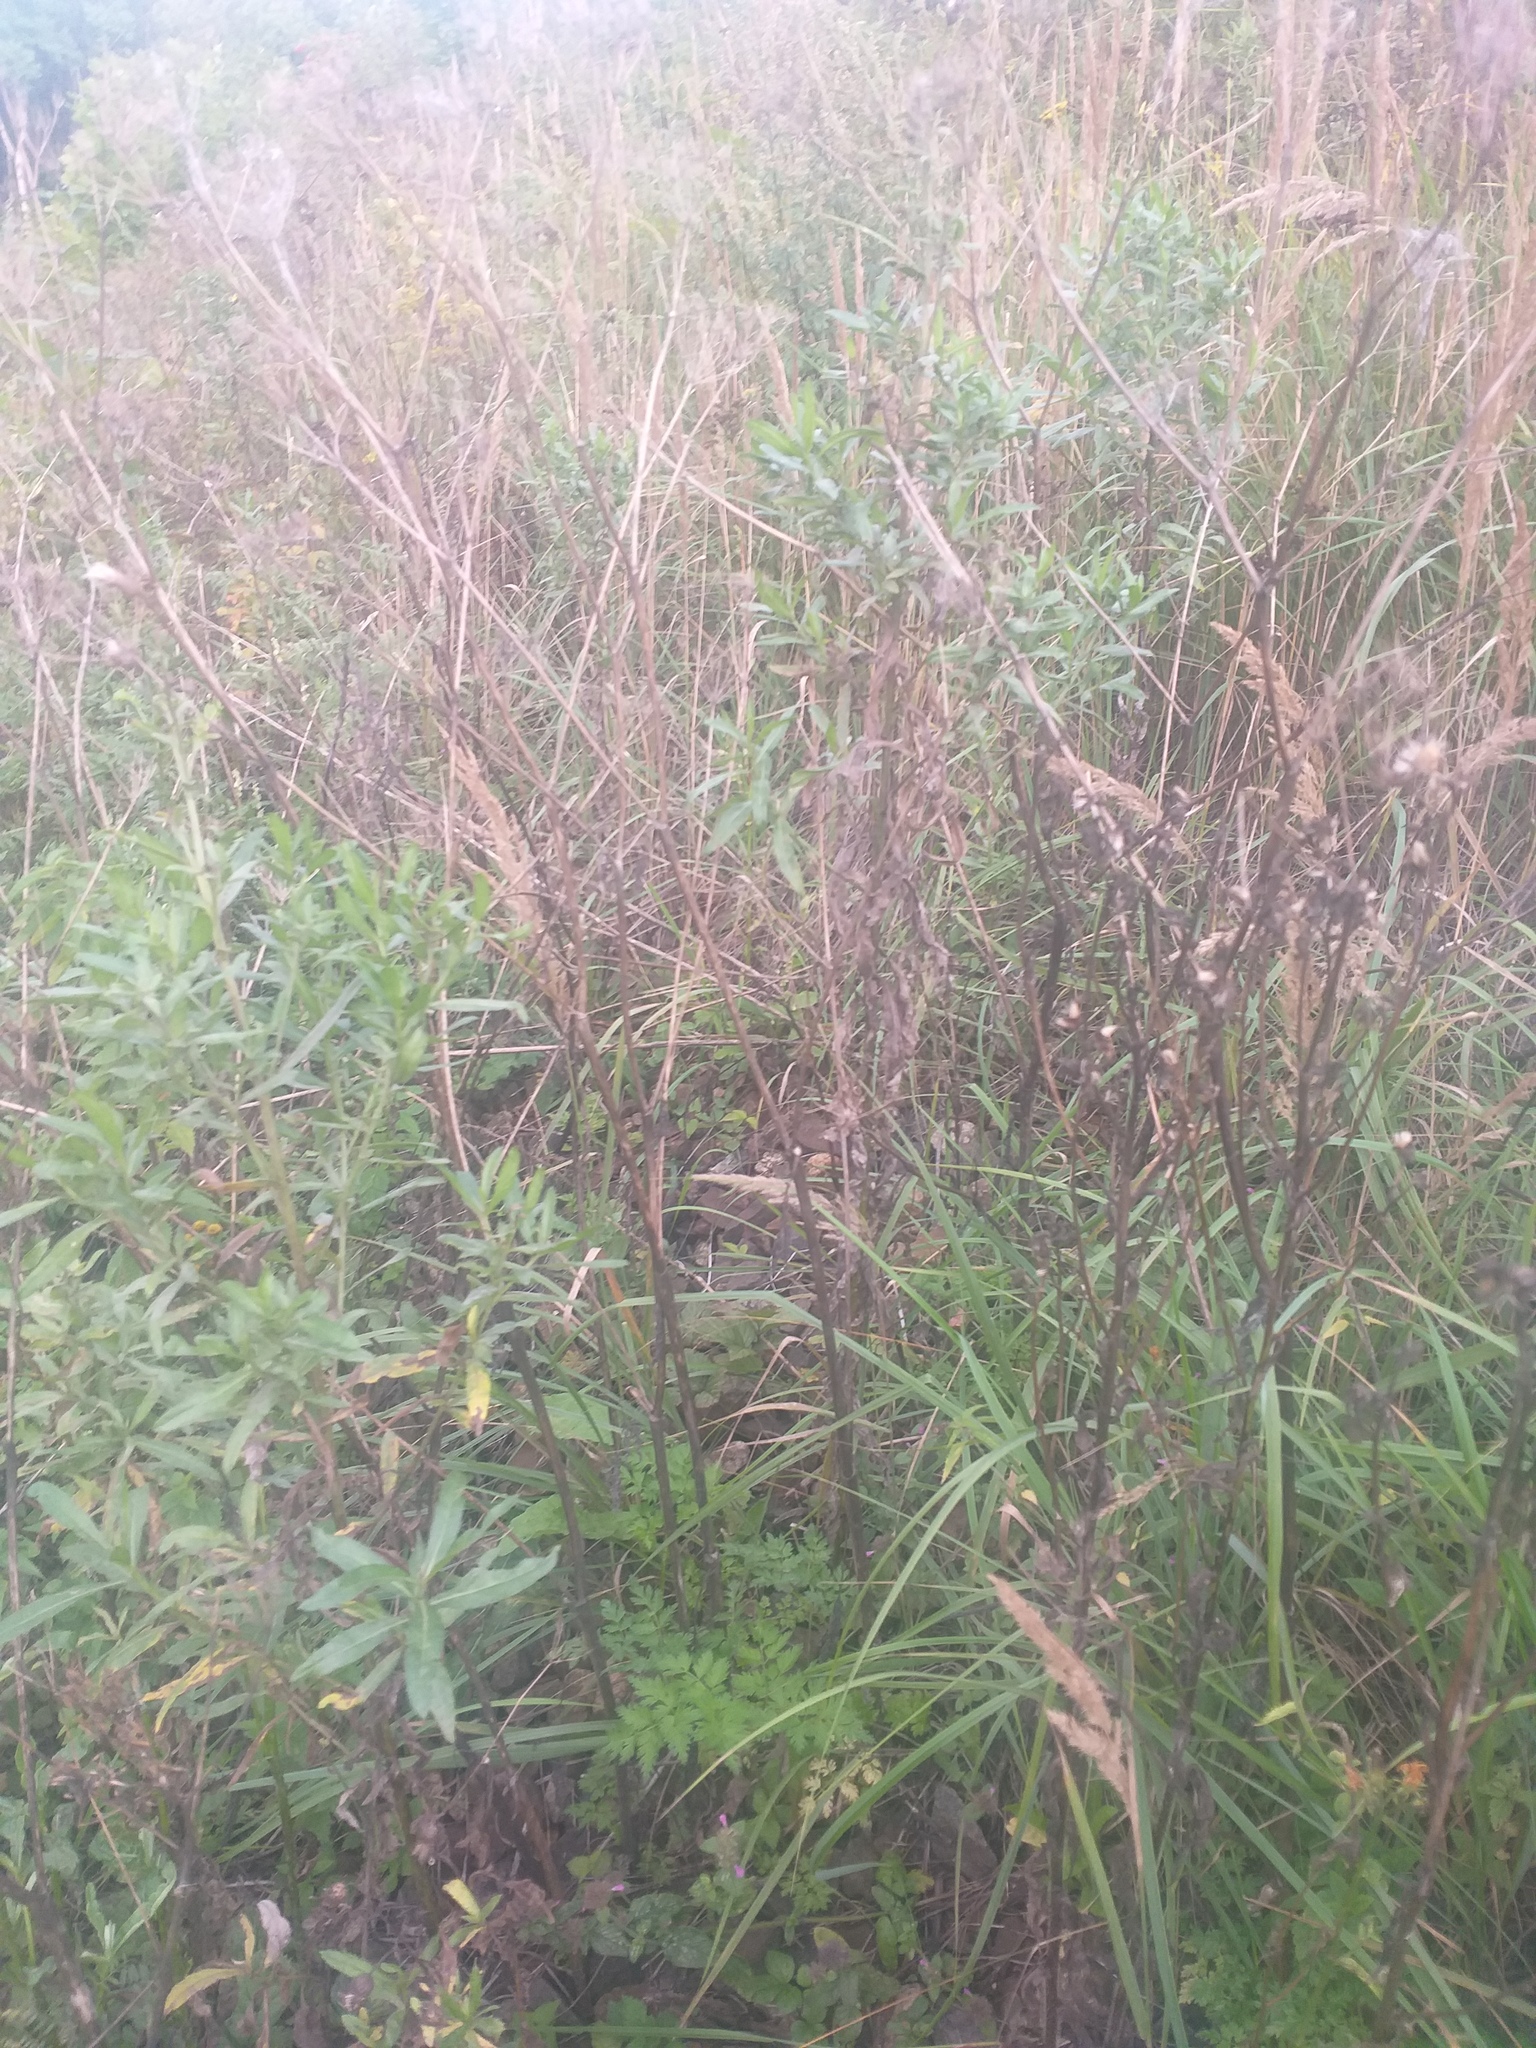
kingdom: Plantae
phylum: Tracheophyta
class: Magnoliopsida
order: Apiales
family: Apiaceae
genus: Anthriscus
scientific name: Anthriscus sylvestris
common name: Cow parsley
